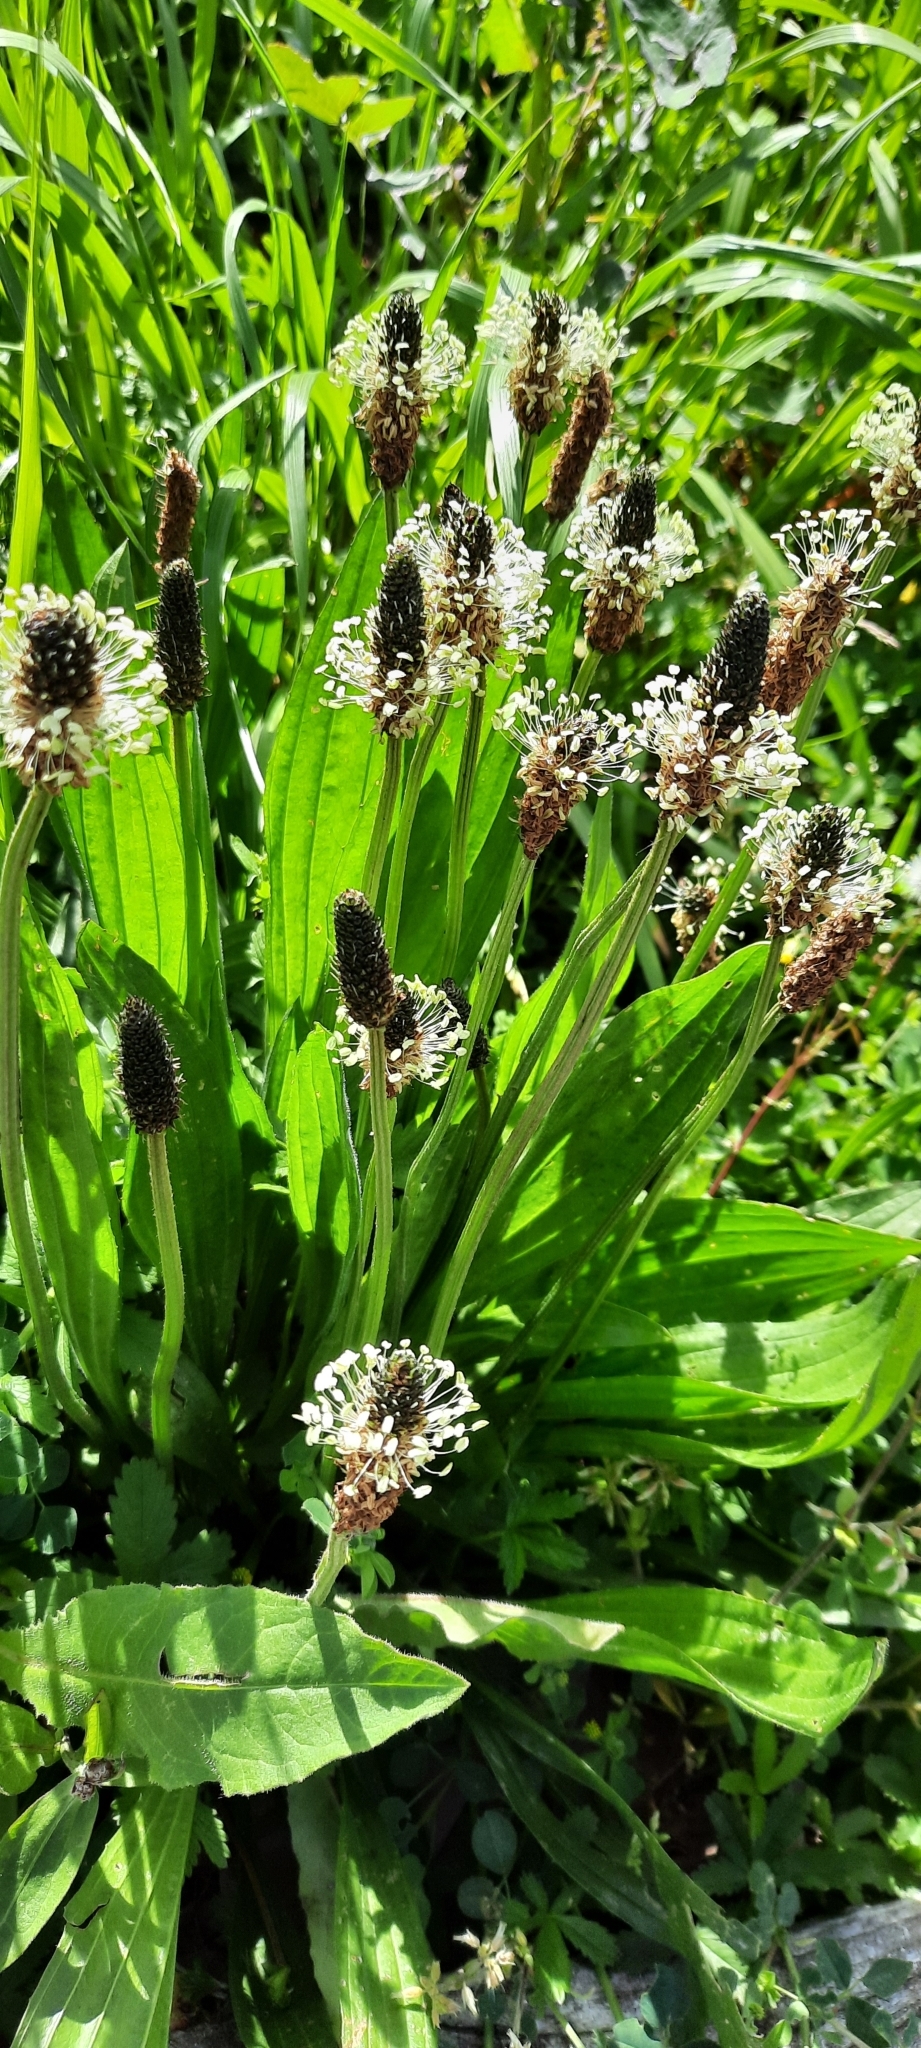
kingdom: Plantae
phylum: Tracheophyta
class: Magnoliopsida
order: Lamiales
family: Plantaginaceae
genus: Plantago
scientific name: Plantago lanceolata
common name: Ribwort plantain
